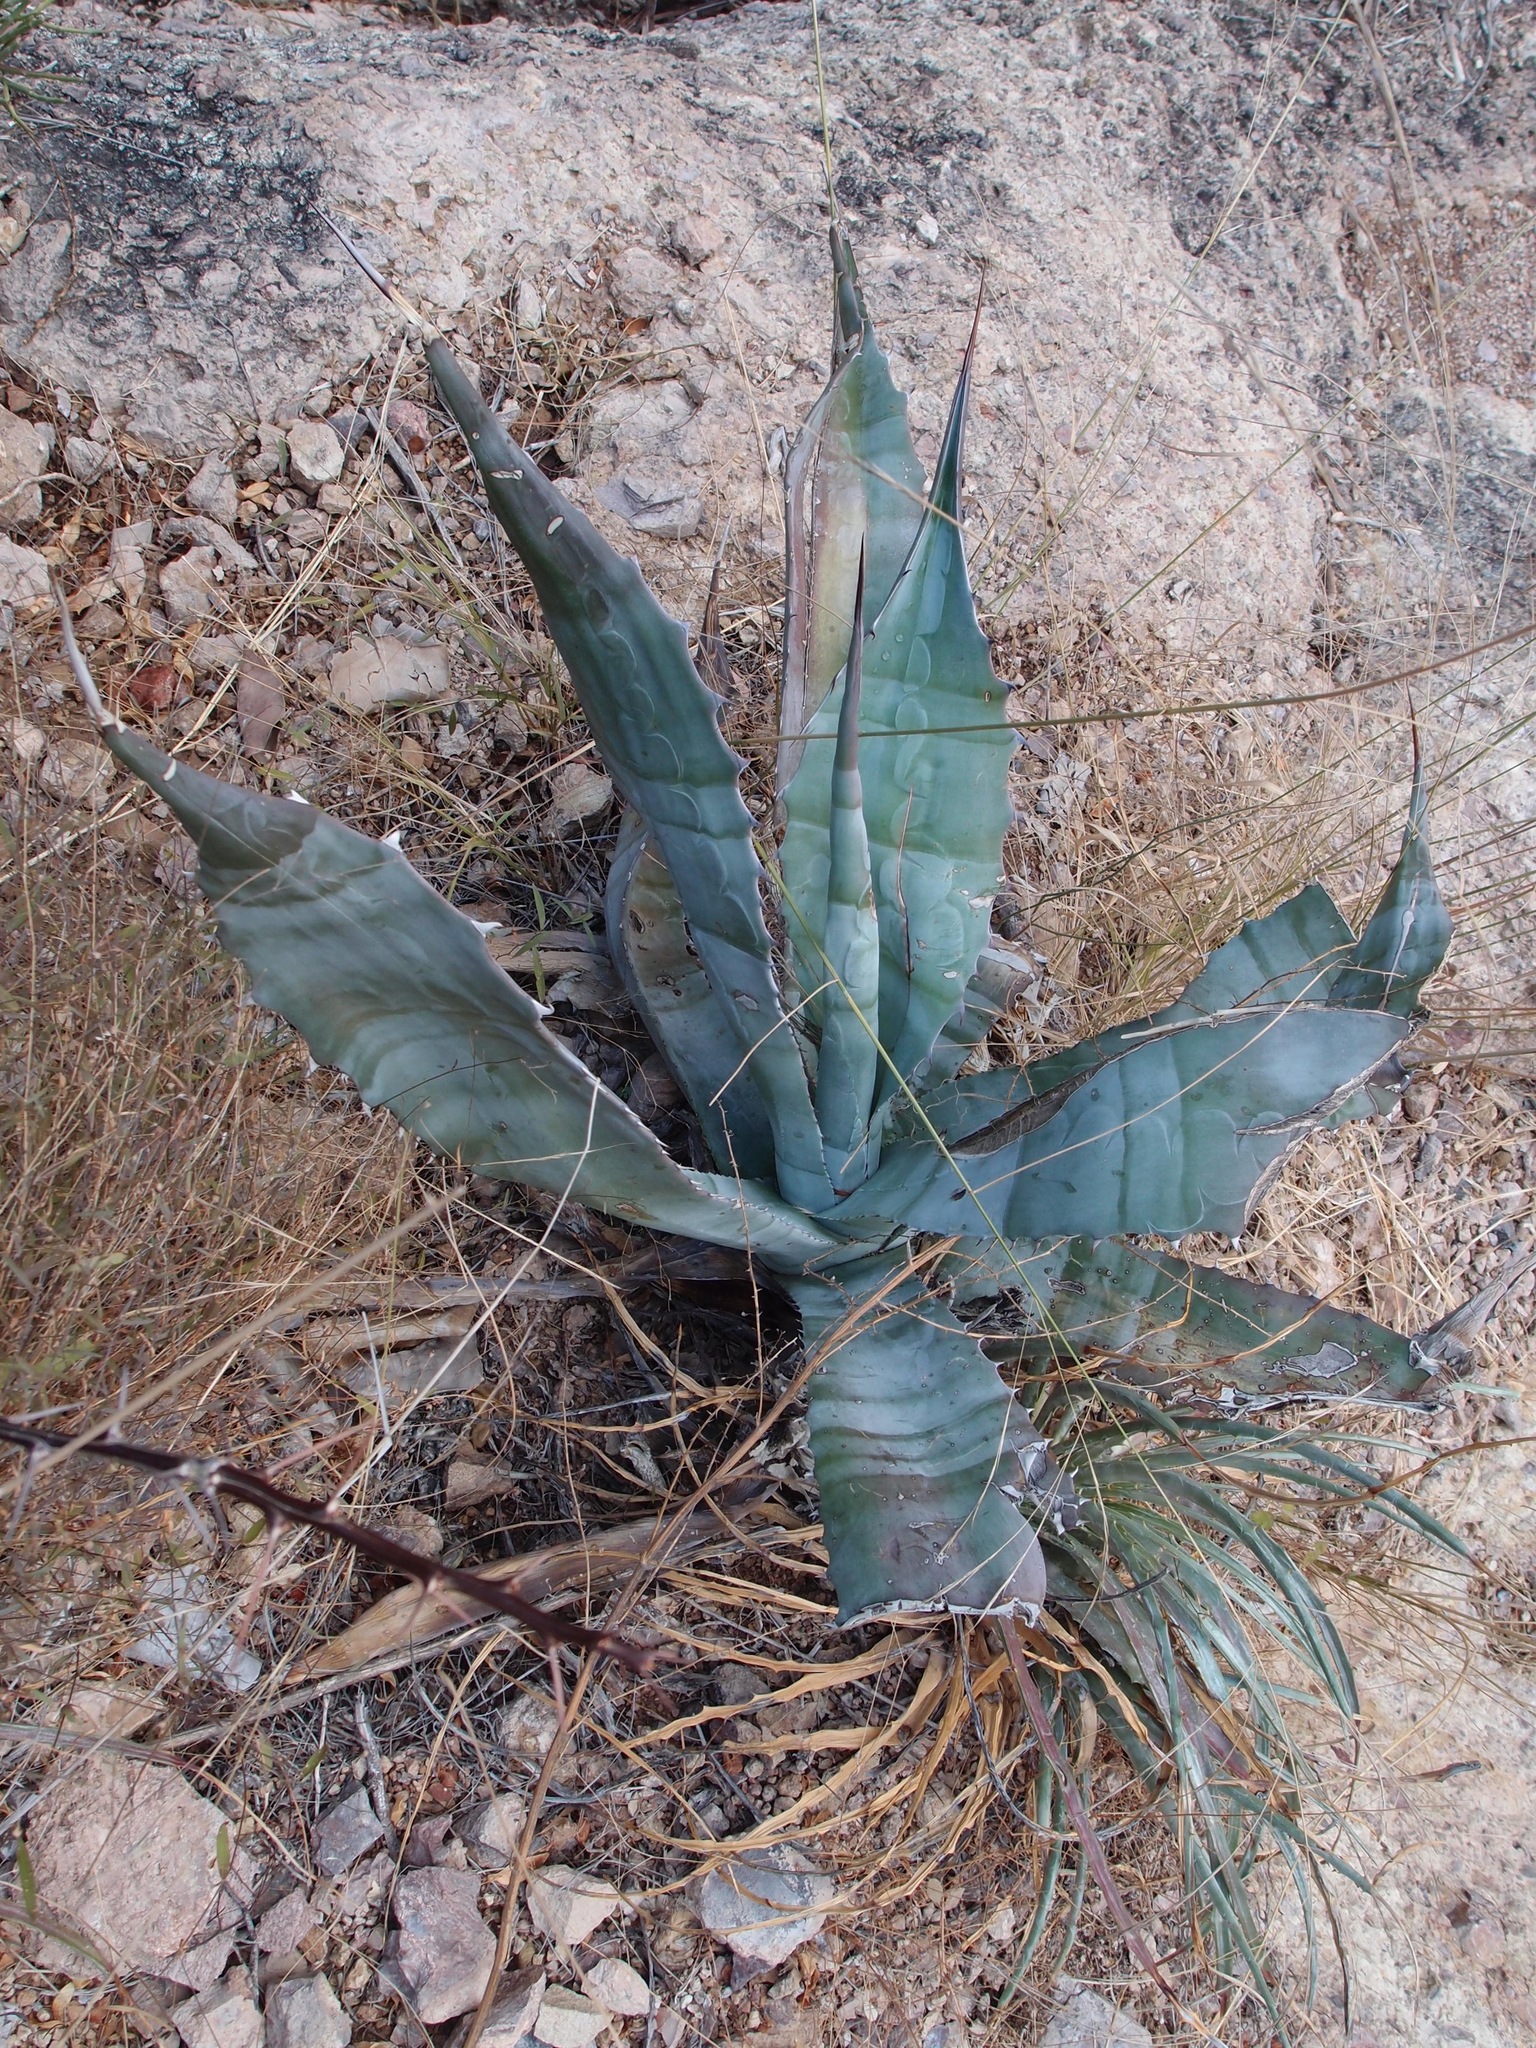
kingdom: Plantae
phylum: Tracheophyta
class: Liliopsida
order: Asparagales
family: Asparagaceae
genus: Agave
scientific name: Agave colorata
